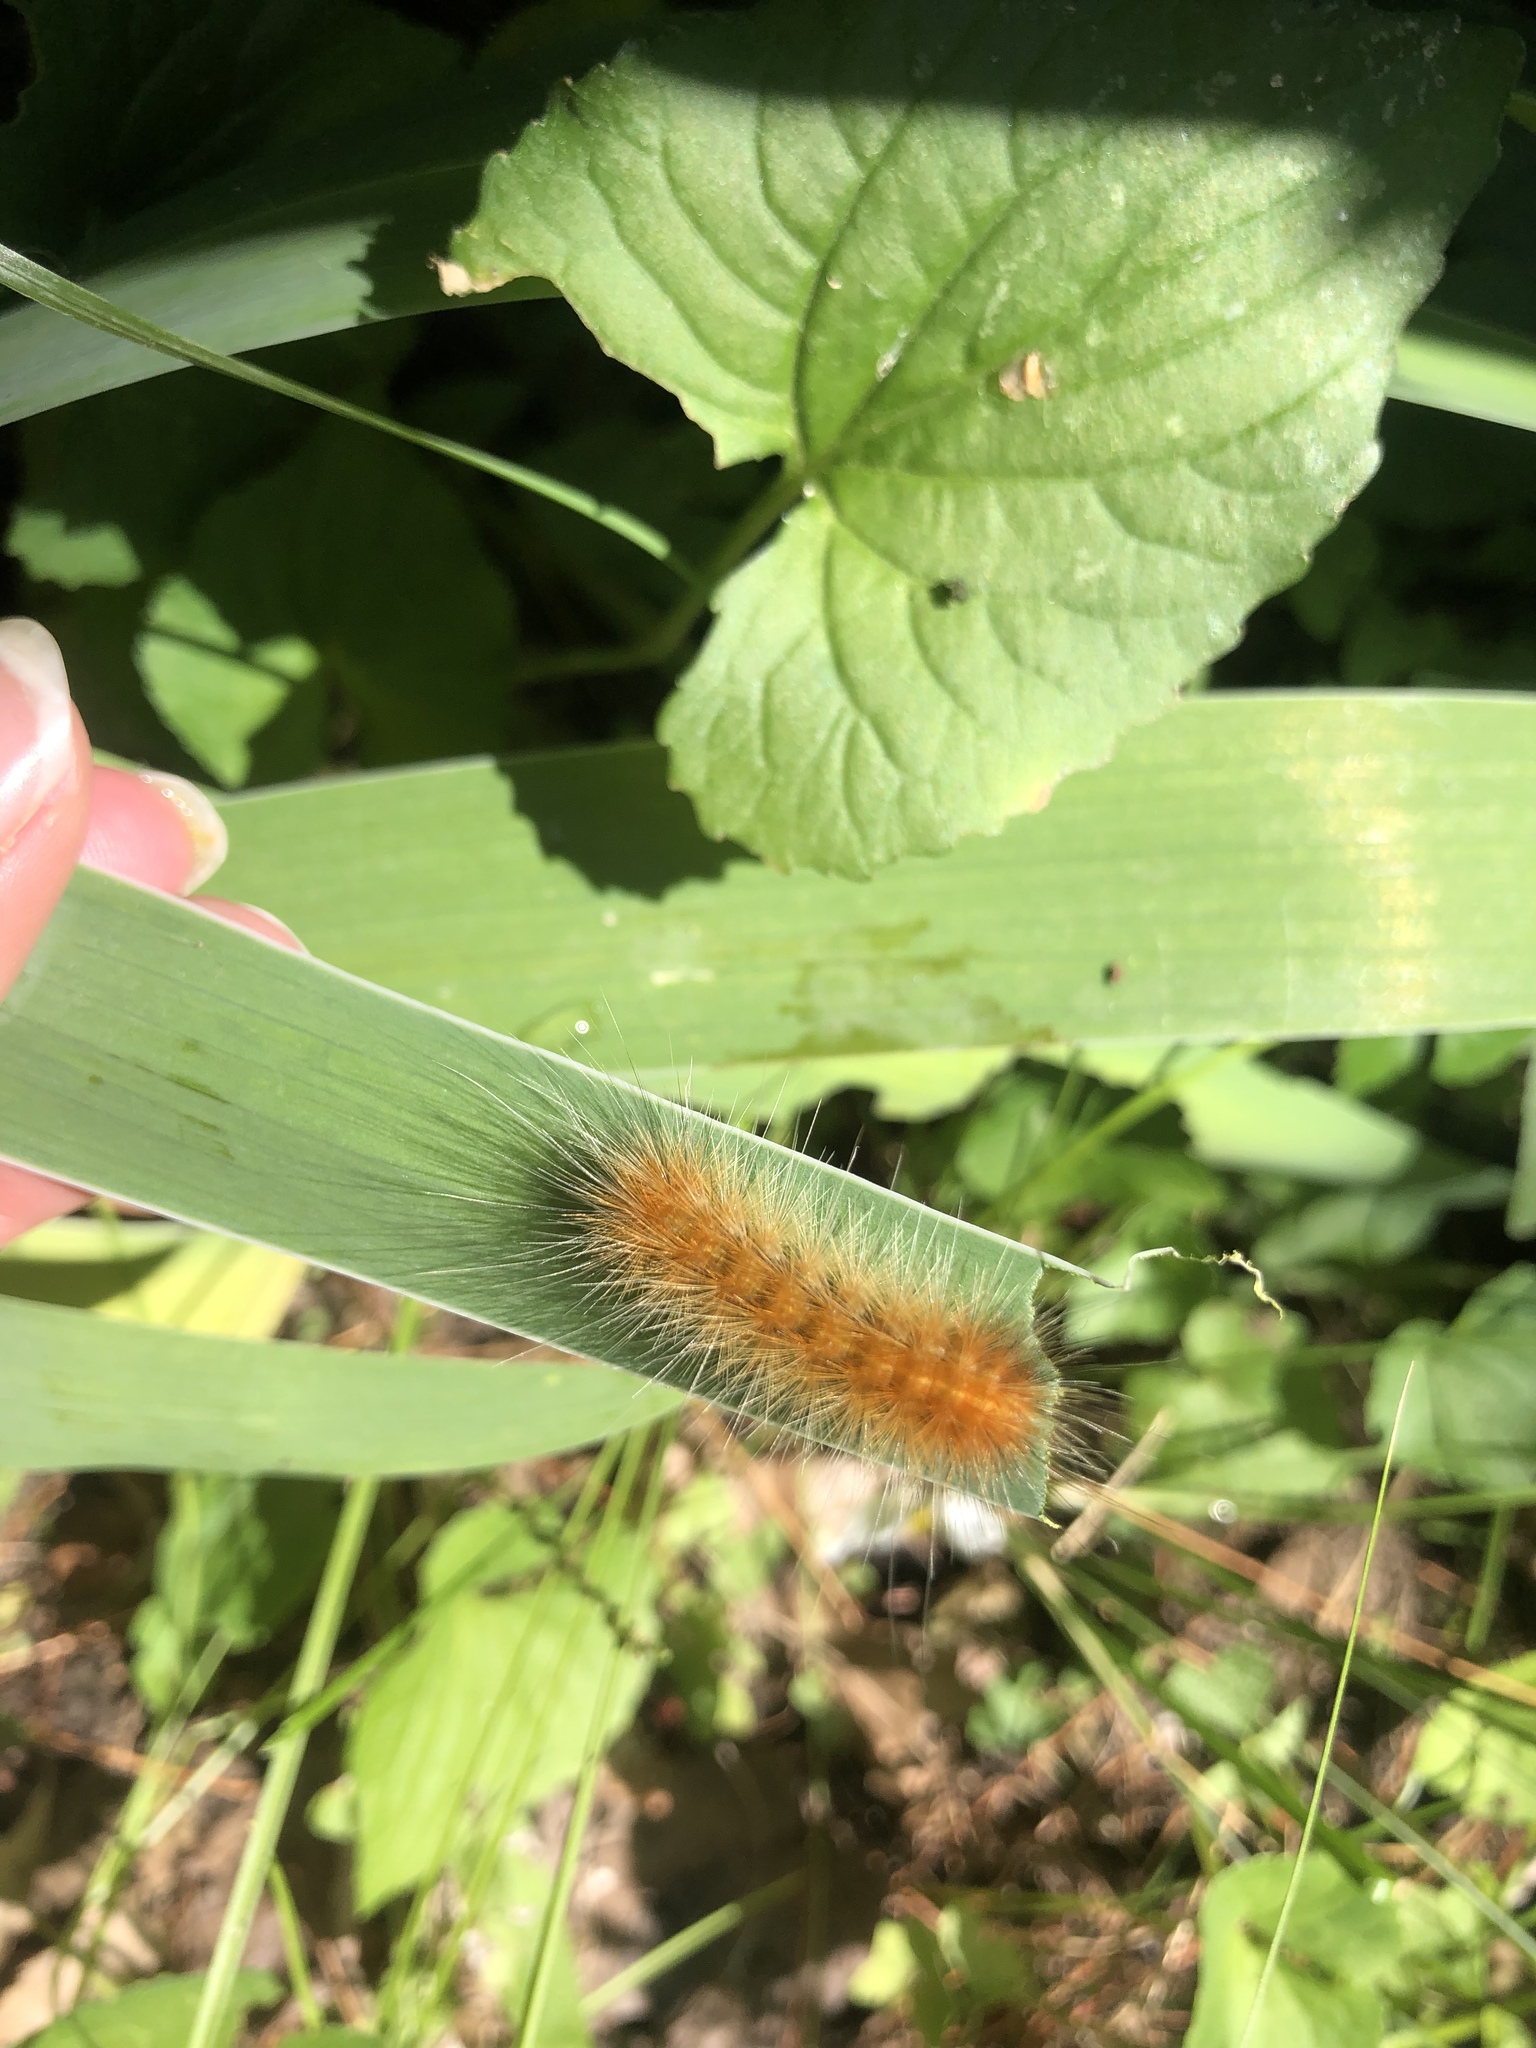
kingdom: Animalia
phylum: Arthropoda
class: Insecta
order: Lepidoptera
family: Erebidae
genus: Spilosoma
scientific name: Spilosoma virginica
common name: Virginia tiger moth
